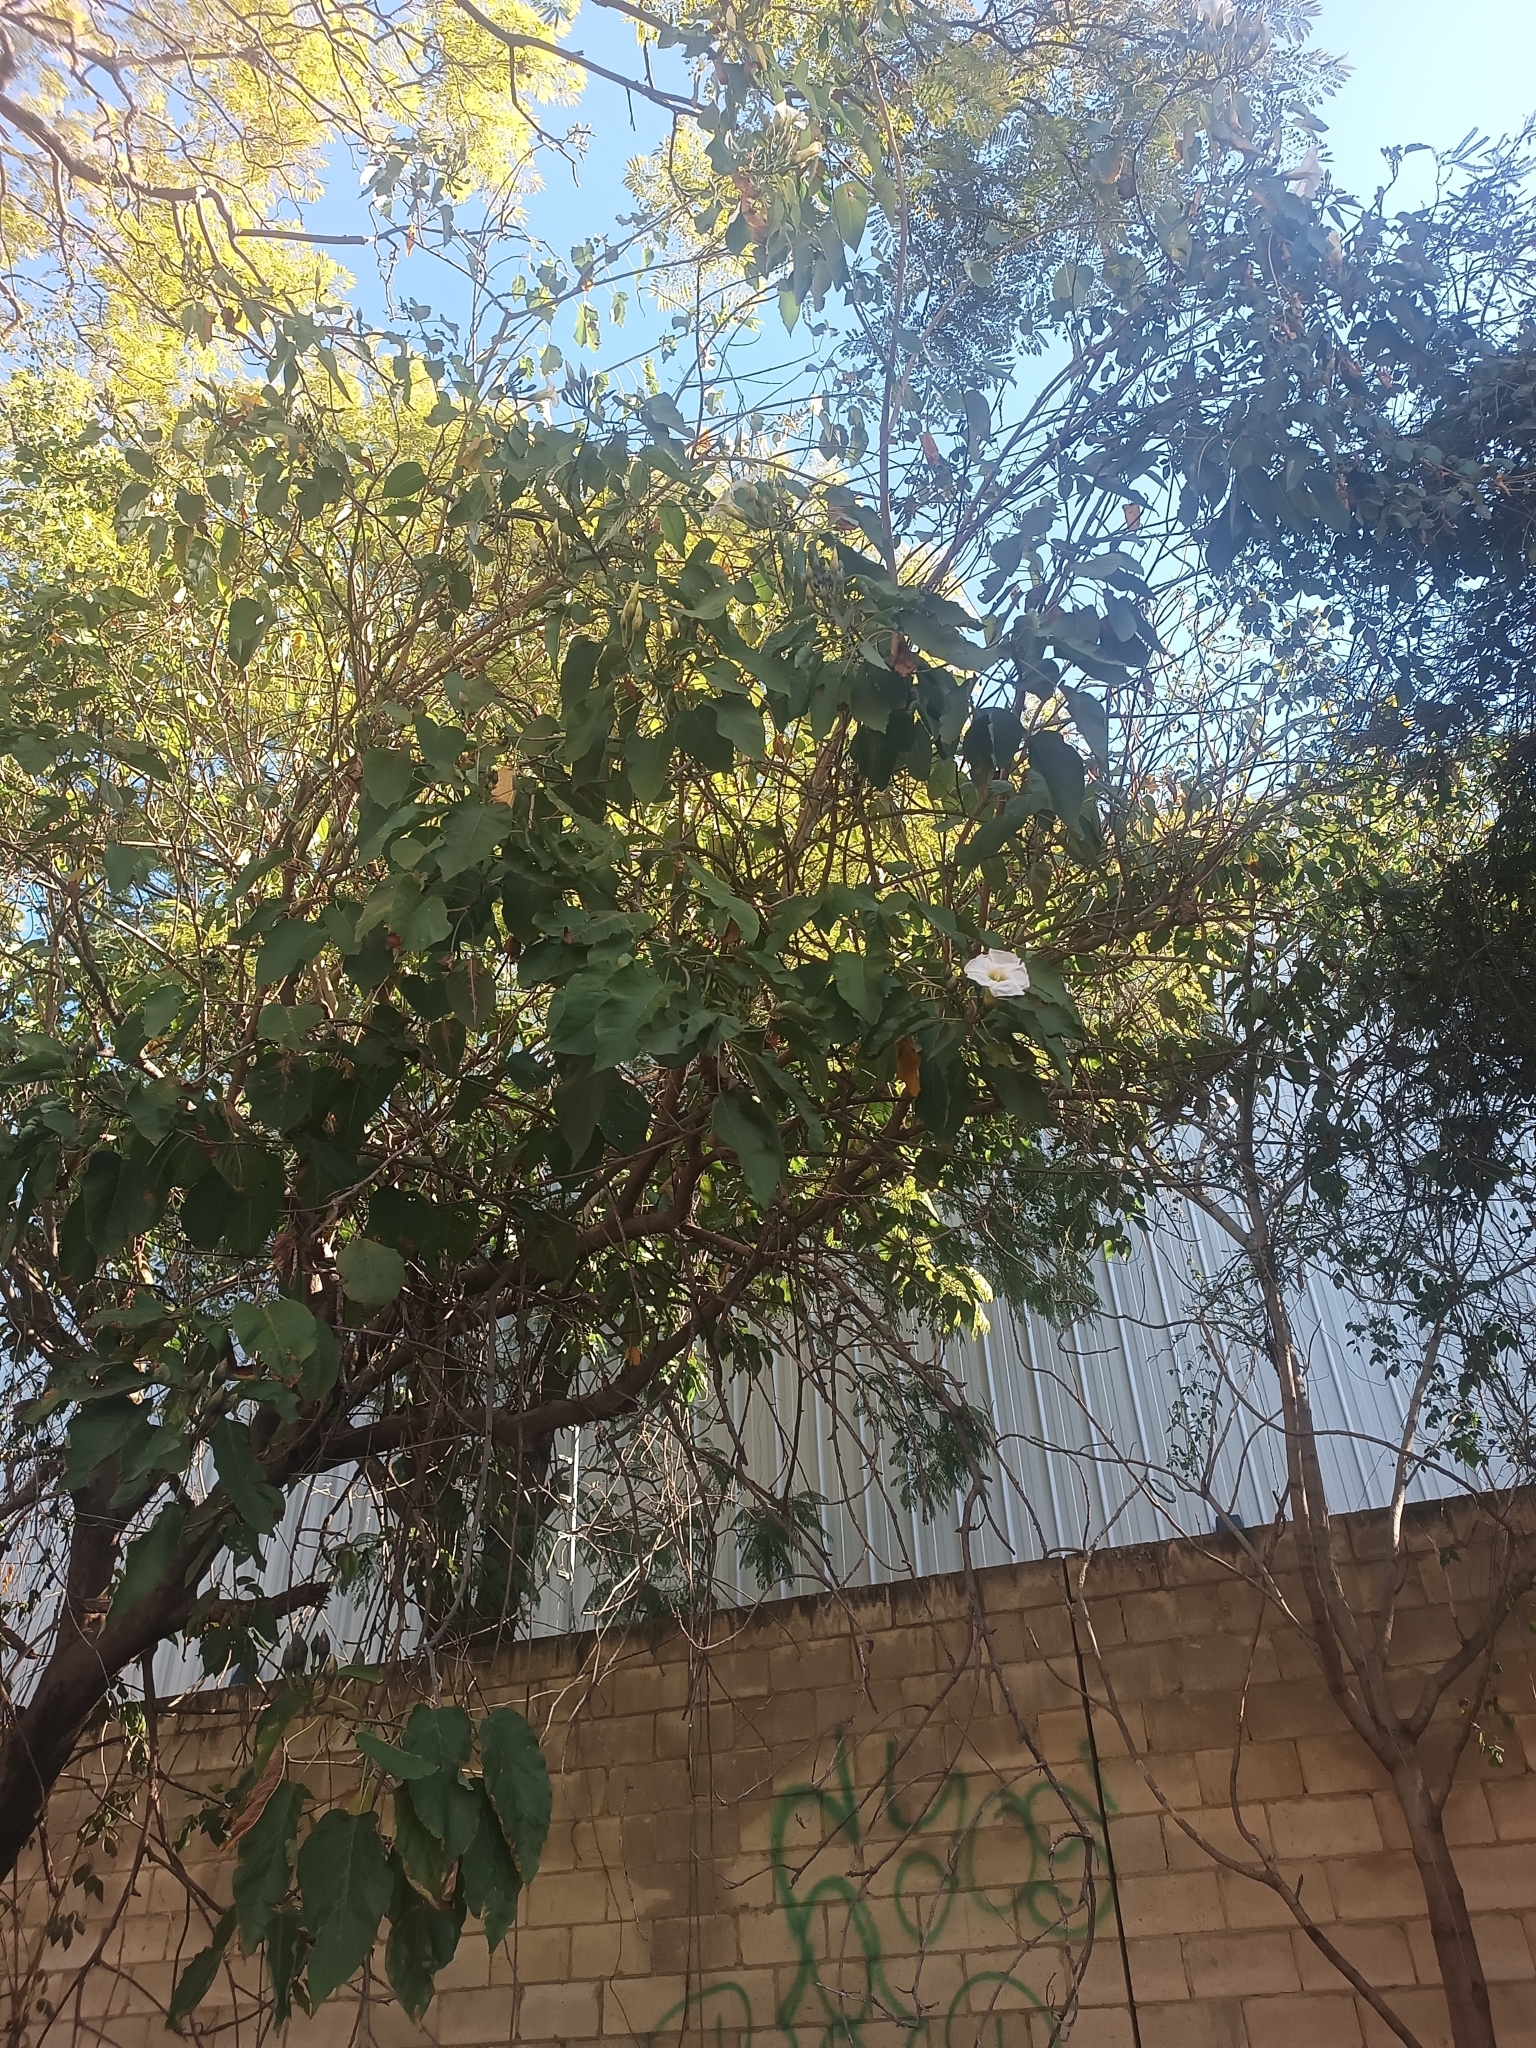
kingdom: Plantae
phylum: Tracheophyta
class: Magnoliopsida
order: Solanales
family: Convolvulaceae
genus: Ipomoea
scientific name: Ipomoea intrapilosa
